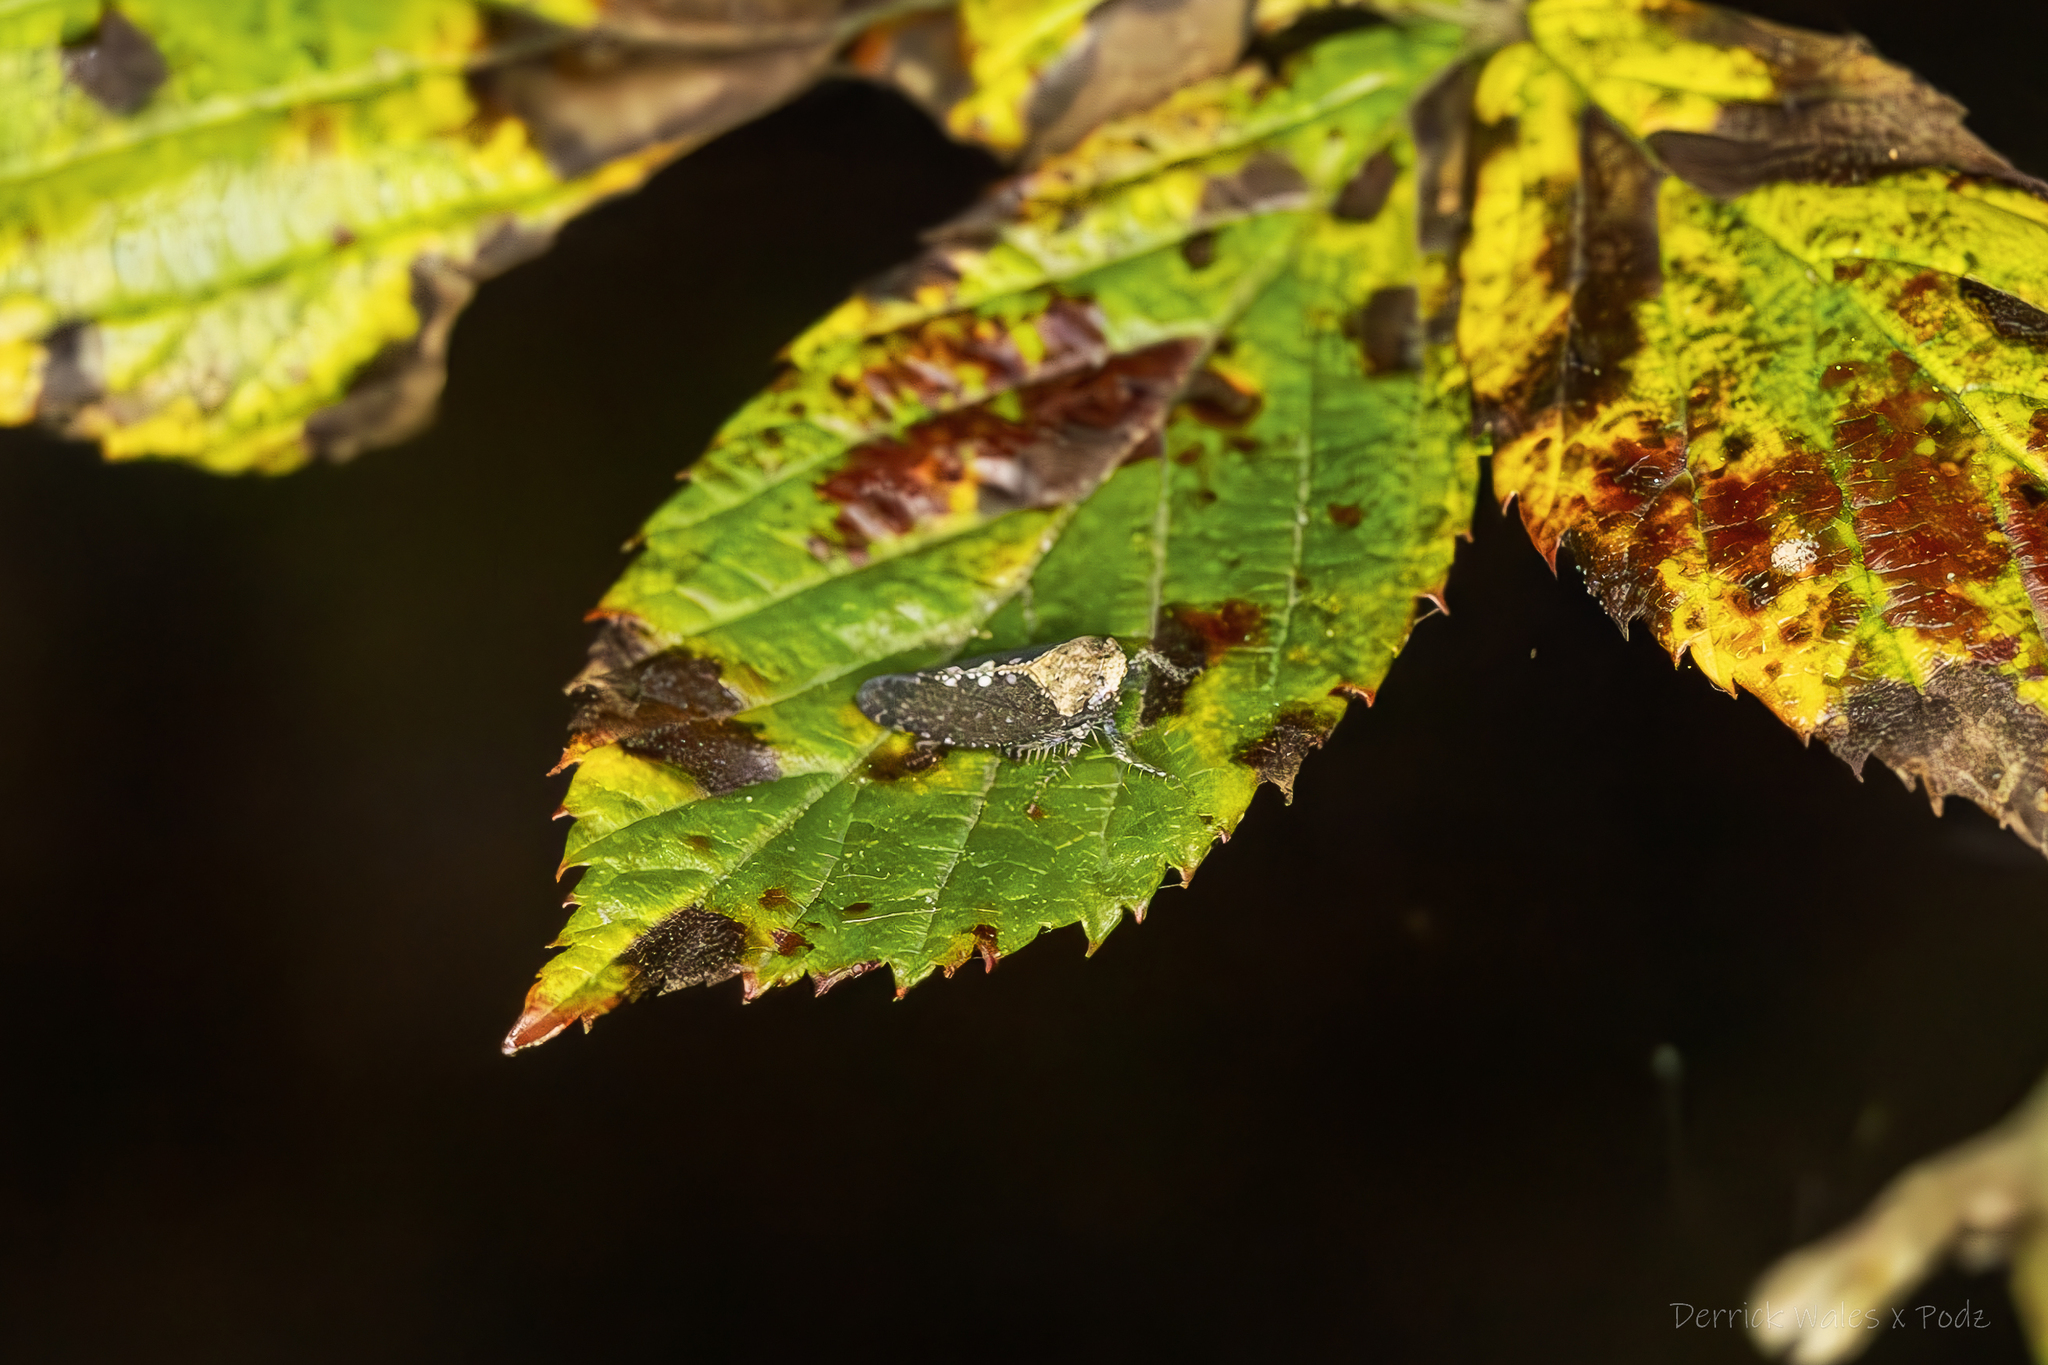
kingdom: Animalia
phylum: Arthropoda
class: Insecta
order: Hemiptera
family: Cicadellidae
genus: Excultanus
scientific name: Excultanus excultus
